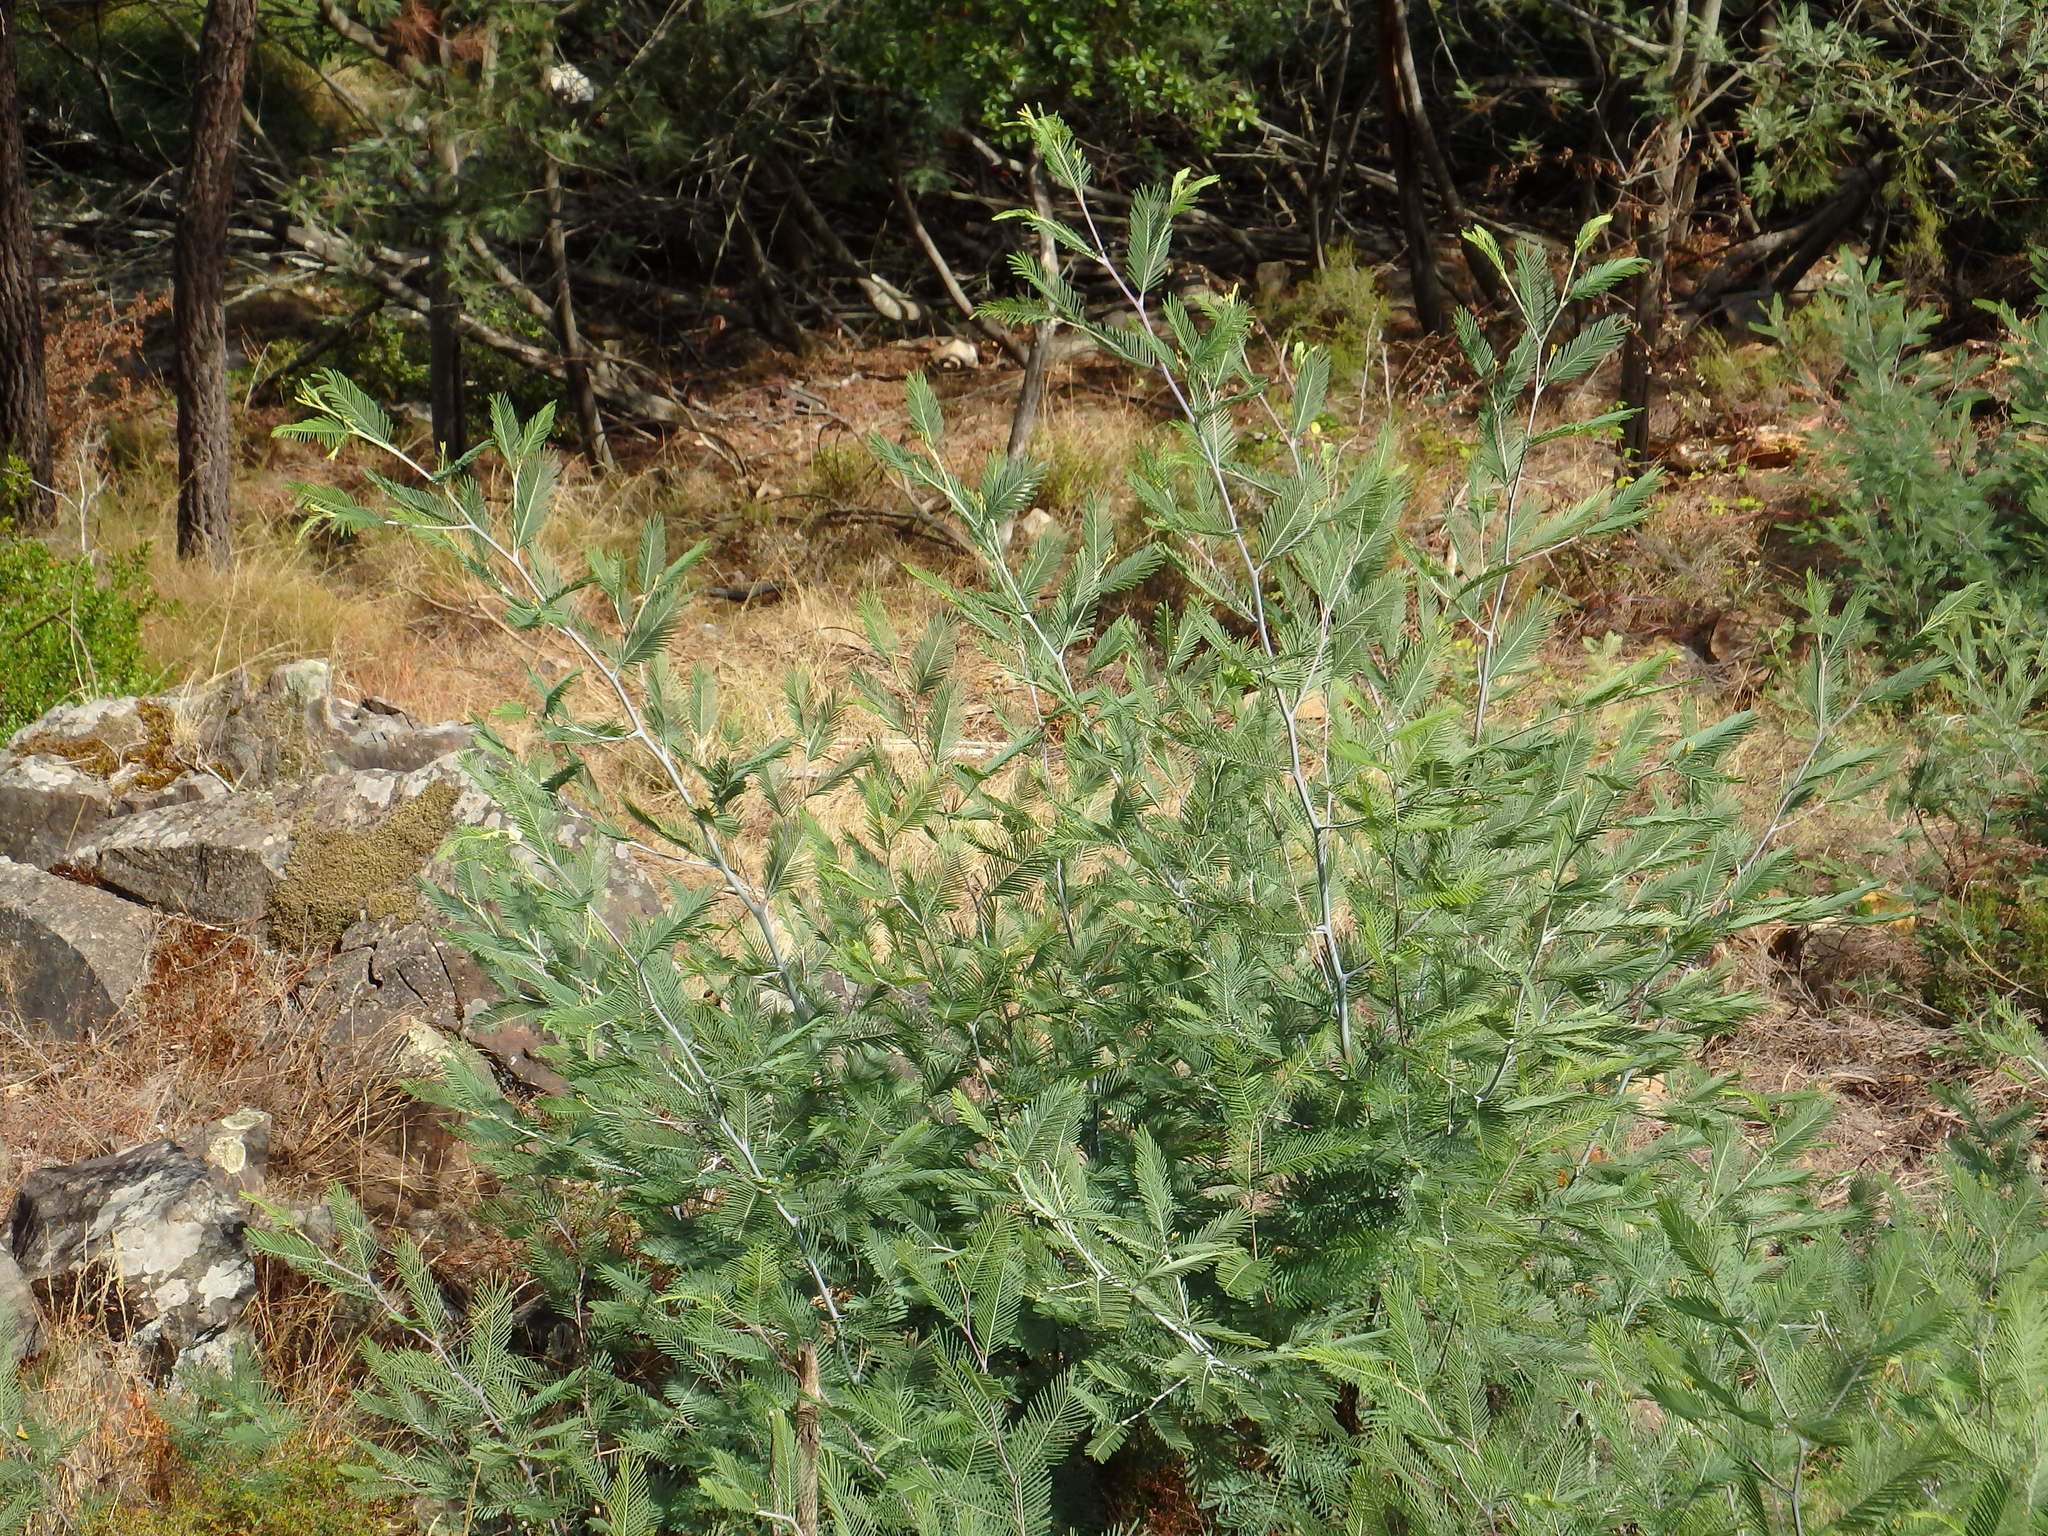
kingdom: Plantae
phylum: Tracheophyta
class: Magnoliopsida
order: Fabales
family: Fabaceae
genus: Acacia
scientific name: Acacia dealbata
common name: Silver wattle
